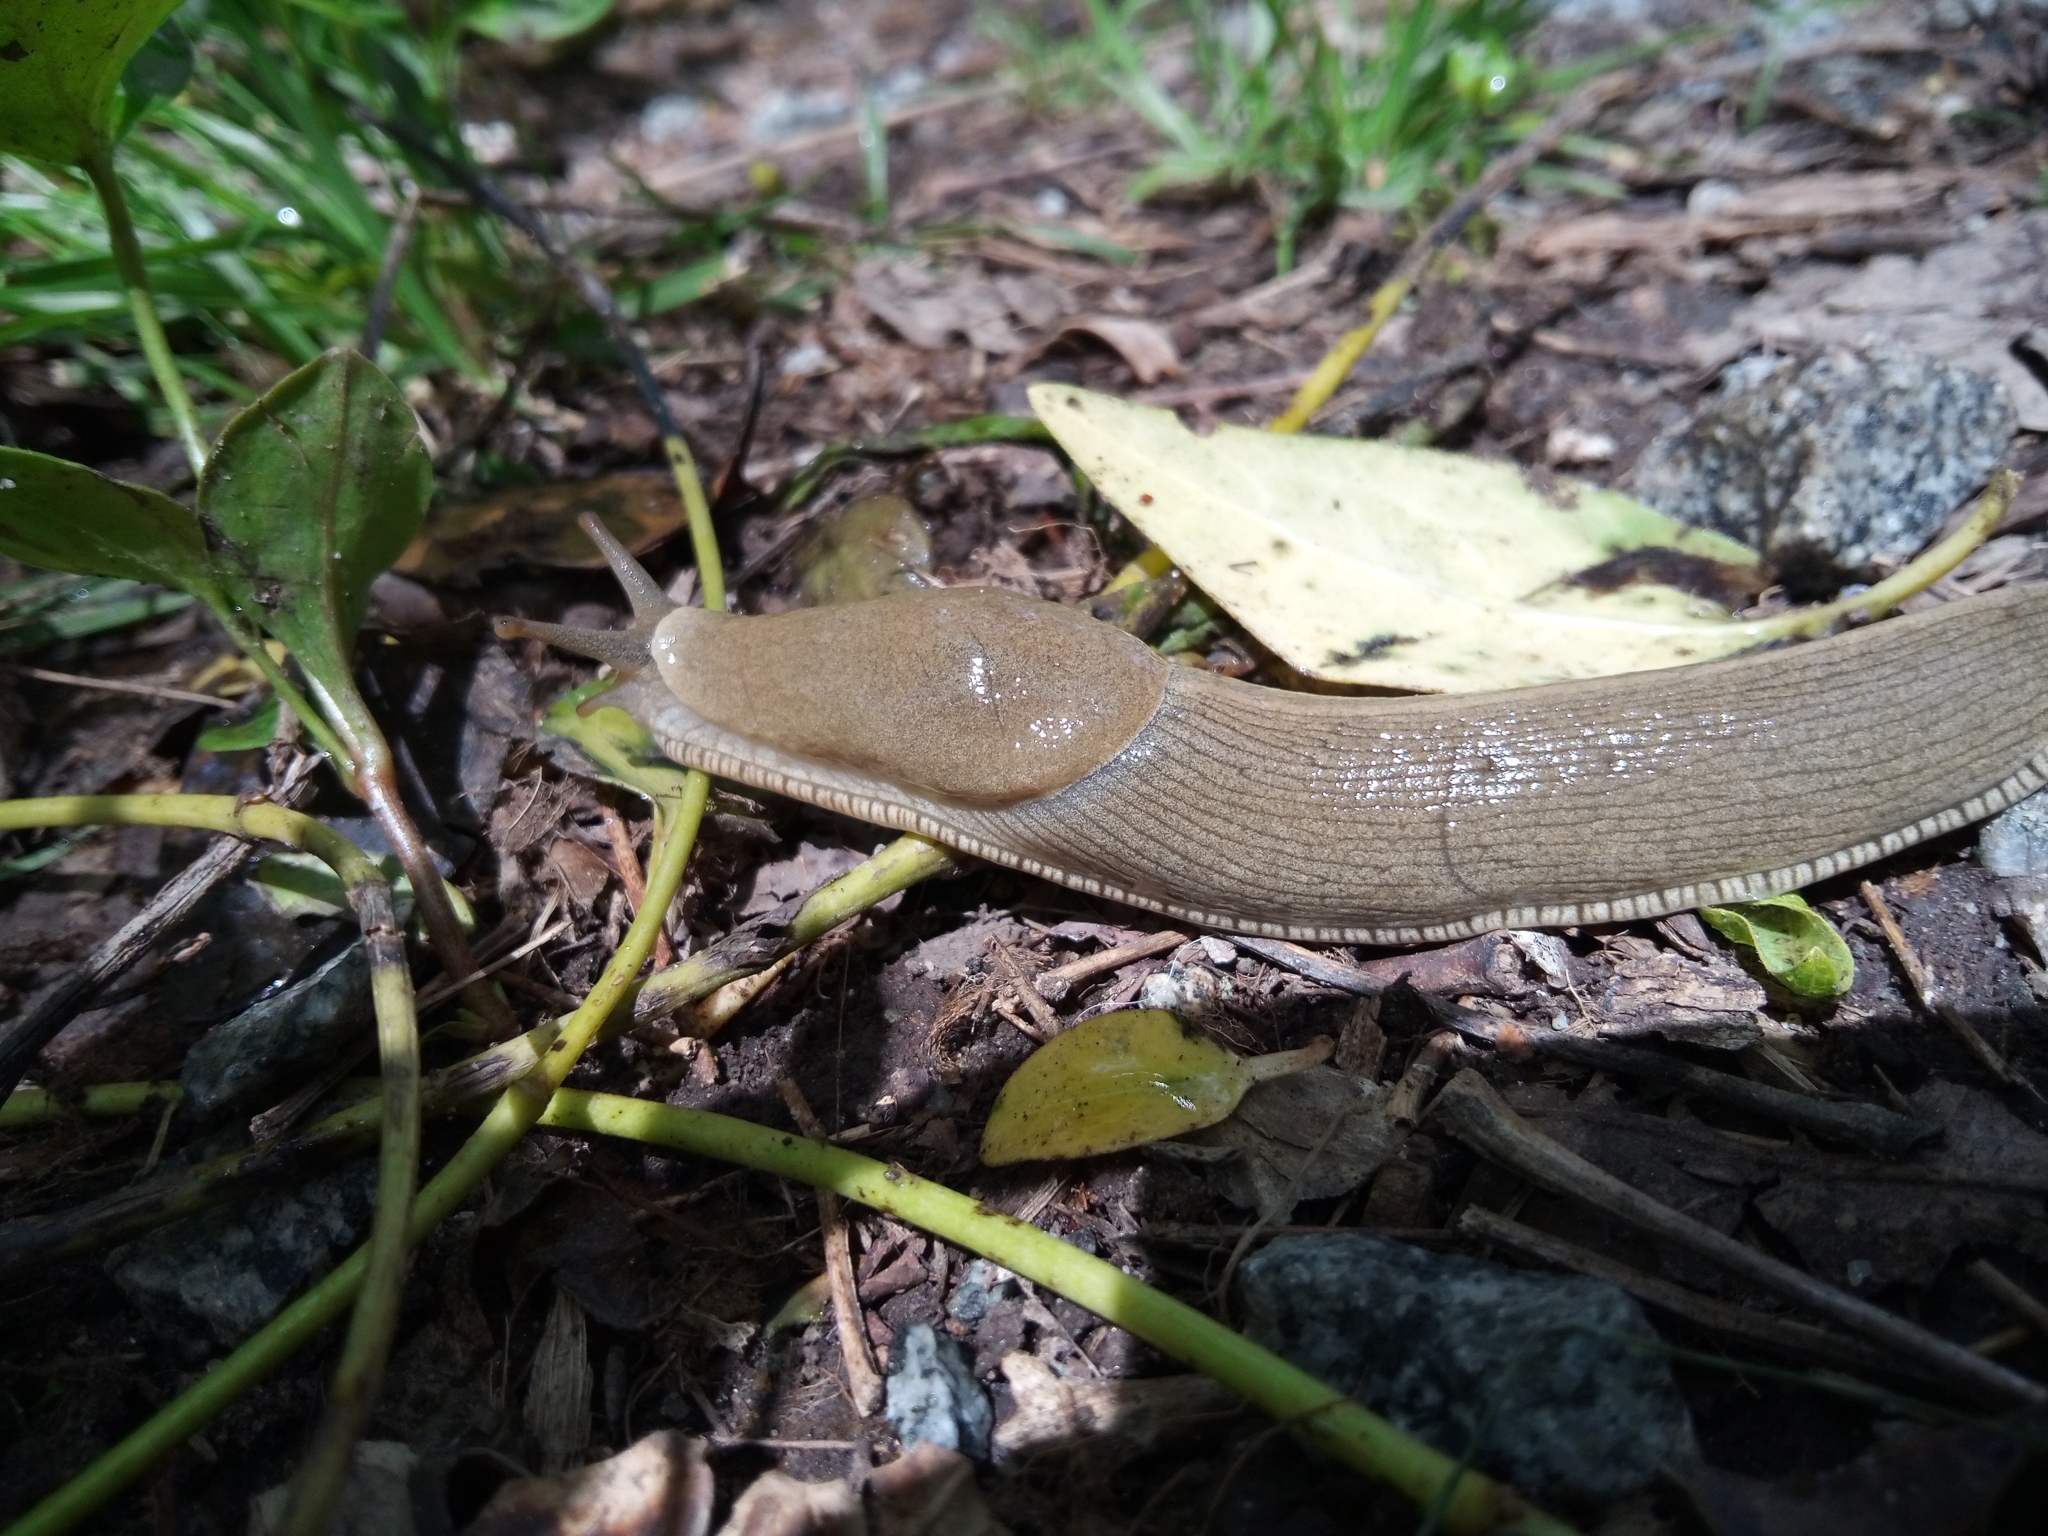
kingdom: Animalia
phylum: Mollusca
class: Gastropoda
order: Stylommatophora
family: Ariolimacidae
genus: Ariolimax
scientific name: Ariolimax columbianus
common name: Pacific banana slug
